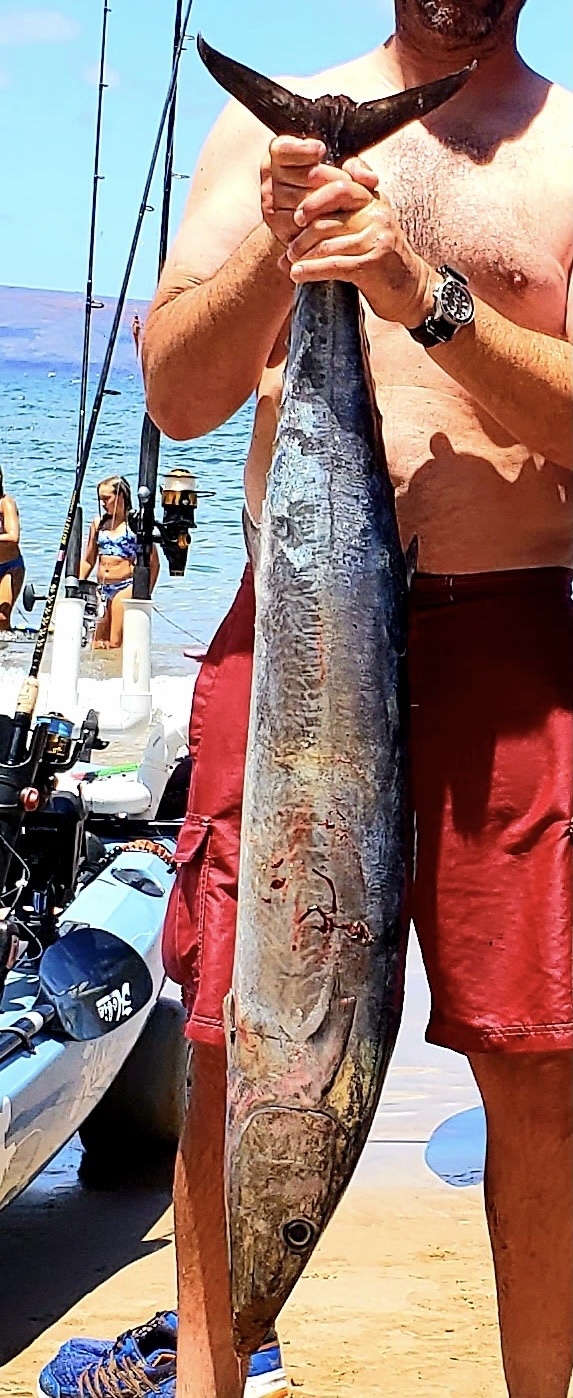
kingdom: Animalia
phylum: Chordata
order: Perciformes
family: Scombridae
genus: Acanthocybium
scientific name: Acanthocybium solandri
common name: Wahoo
